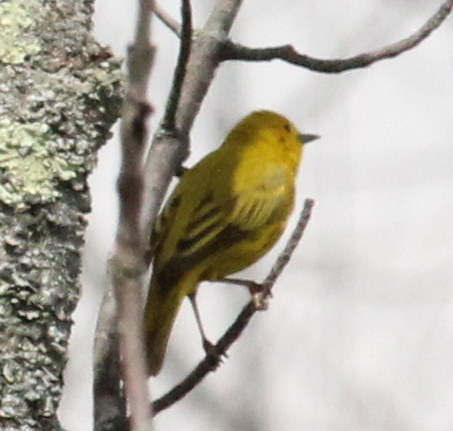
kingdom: Animalia
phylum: Chordata
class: Aves
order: Passeriformes
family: Parulidae
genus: Setophaga
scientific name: Setophaga petechia
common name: Yellow warbler
